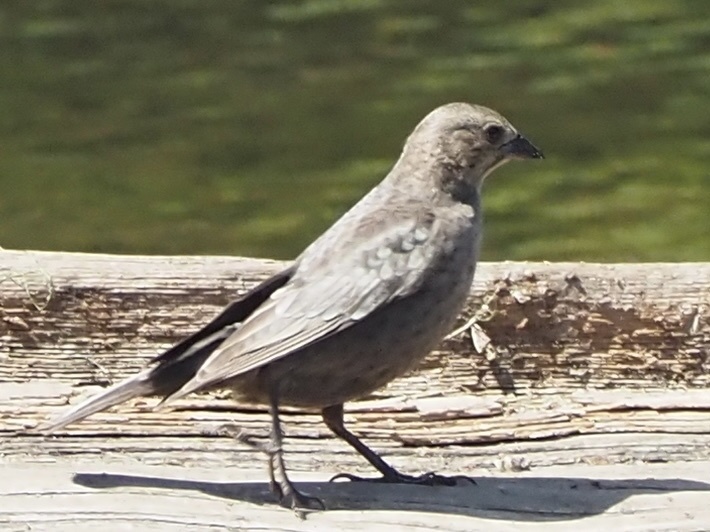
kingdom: Animalia
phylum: Chordata
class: Aves
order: Passeriformes
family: Icteridae
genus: Molothrus
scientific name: Molothrus ater
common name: Brown-headed cowbird
